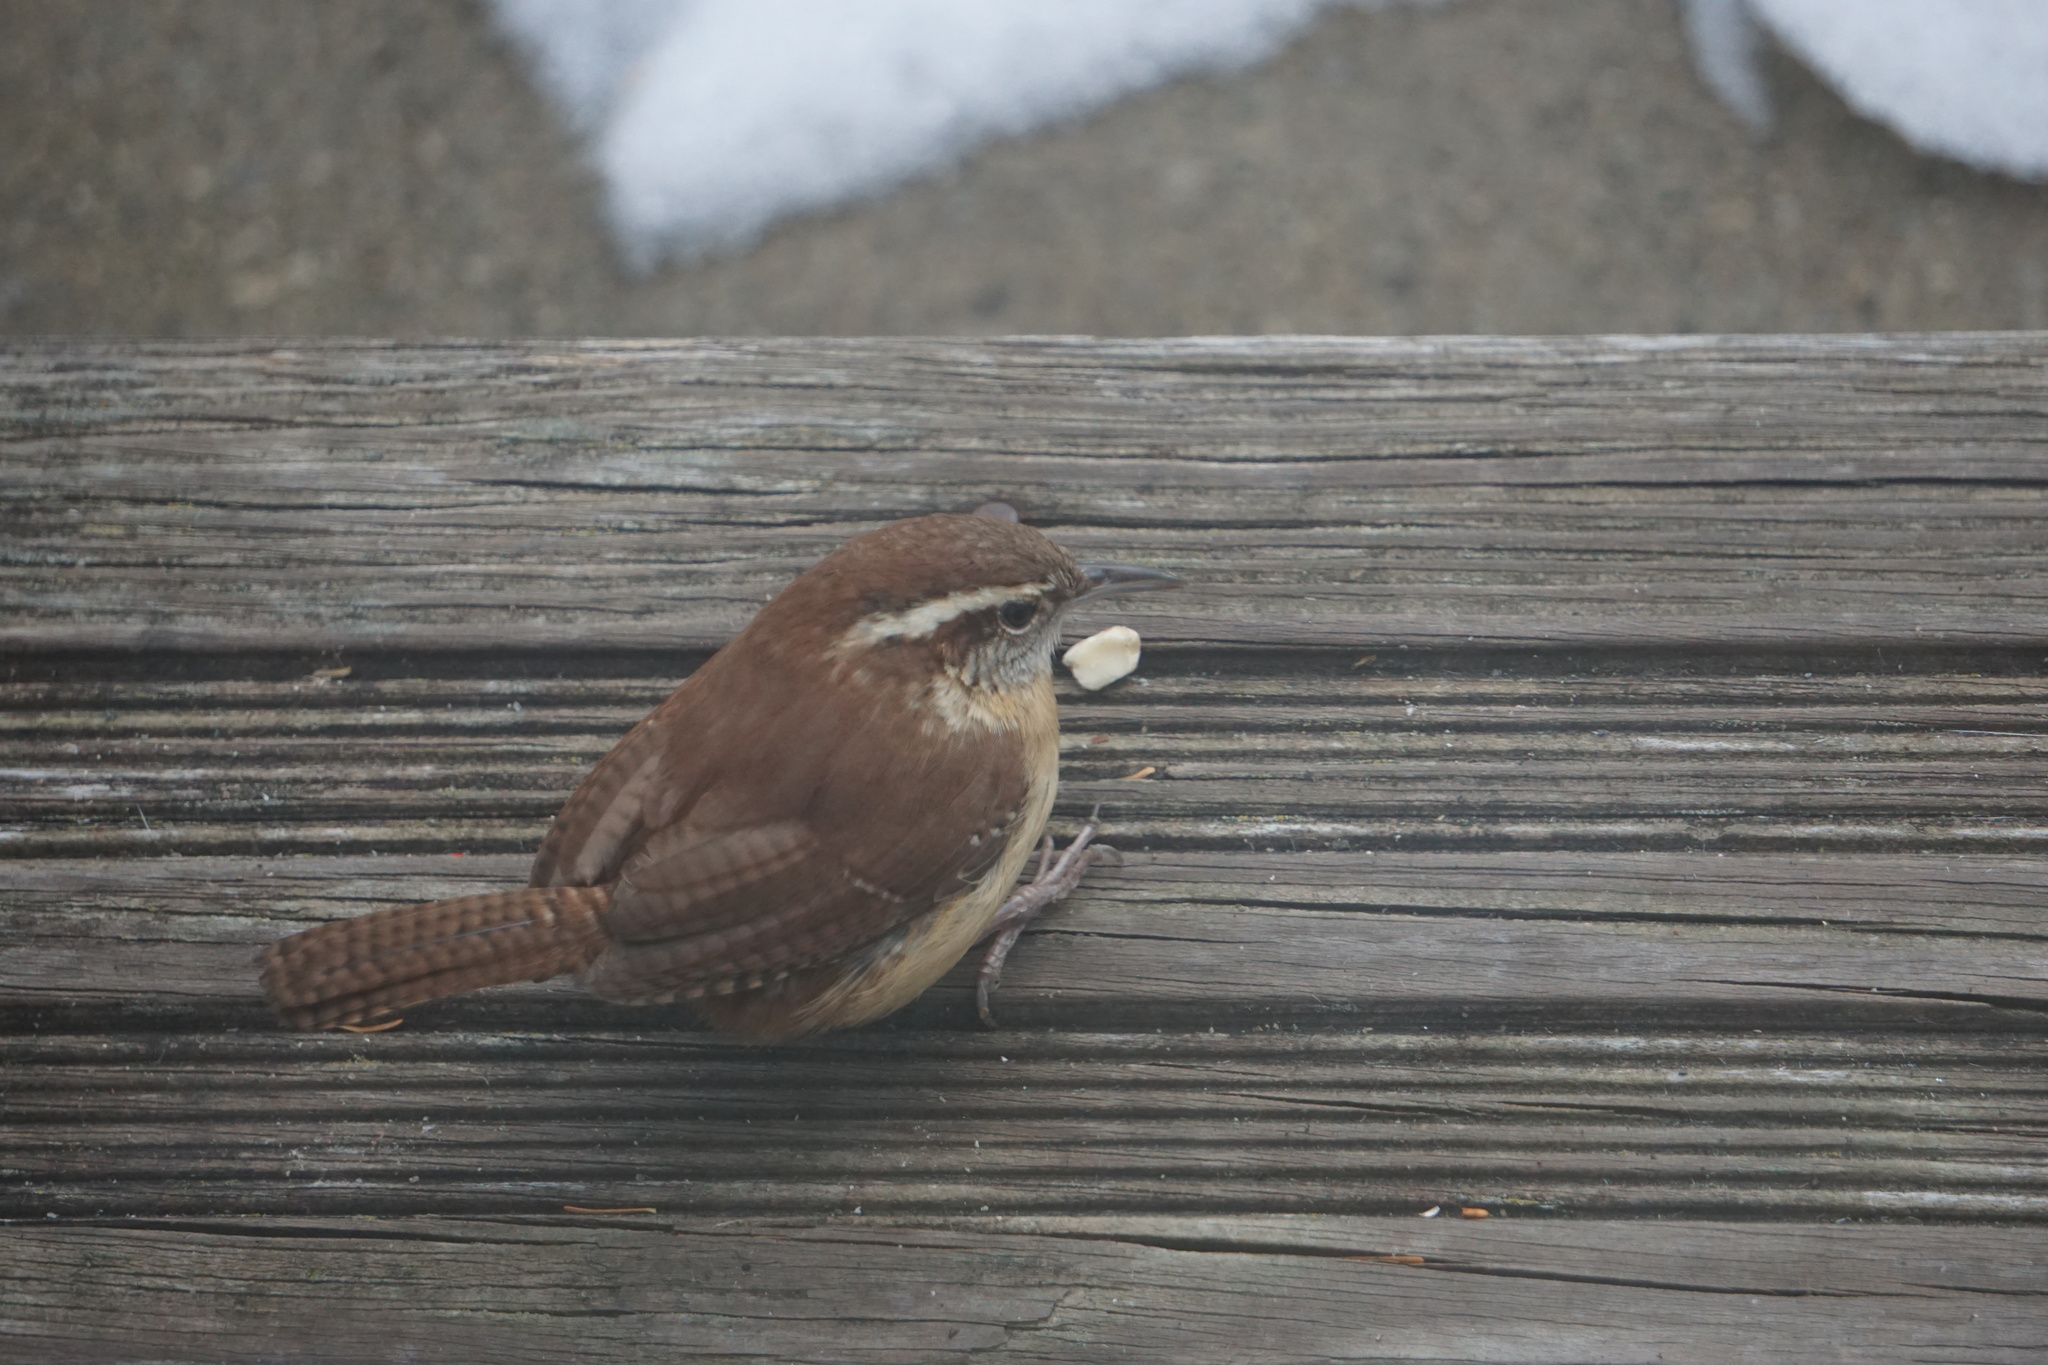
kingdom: Animalia
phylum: Chordata
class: Aves
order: Passeriformes
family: Troglodytidae
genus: Thryothorus
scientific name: Thryothorus ludovicianus
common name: Carolina wren
